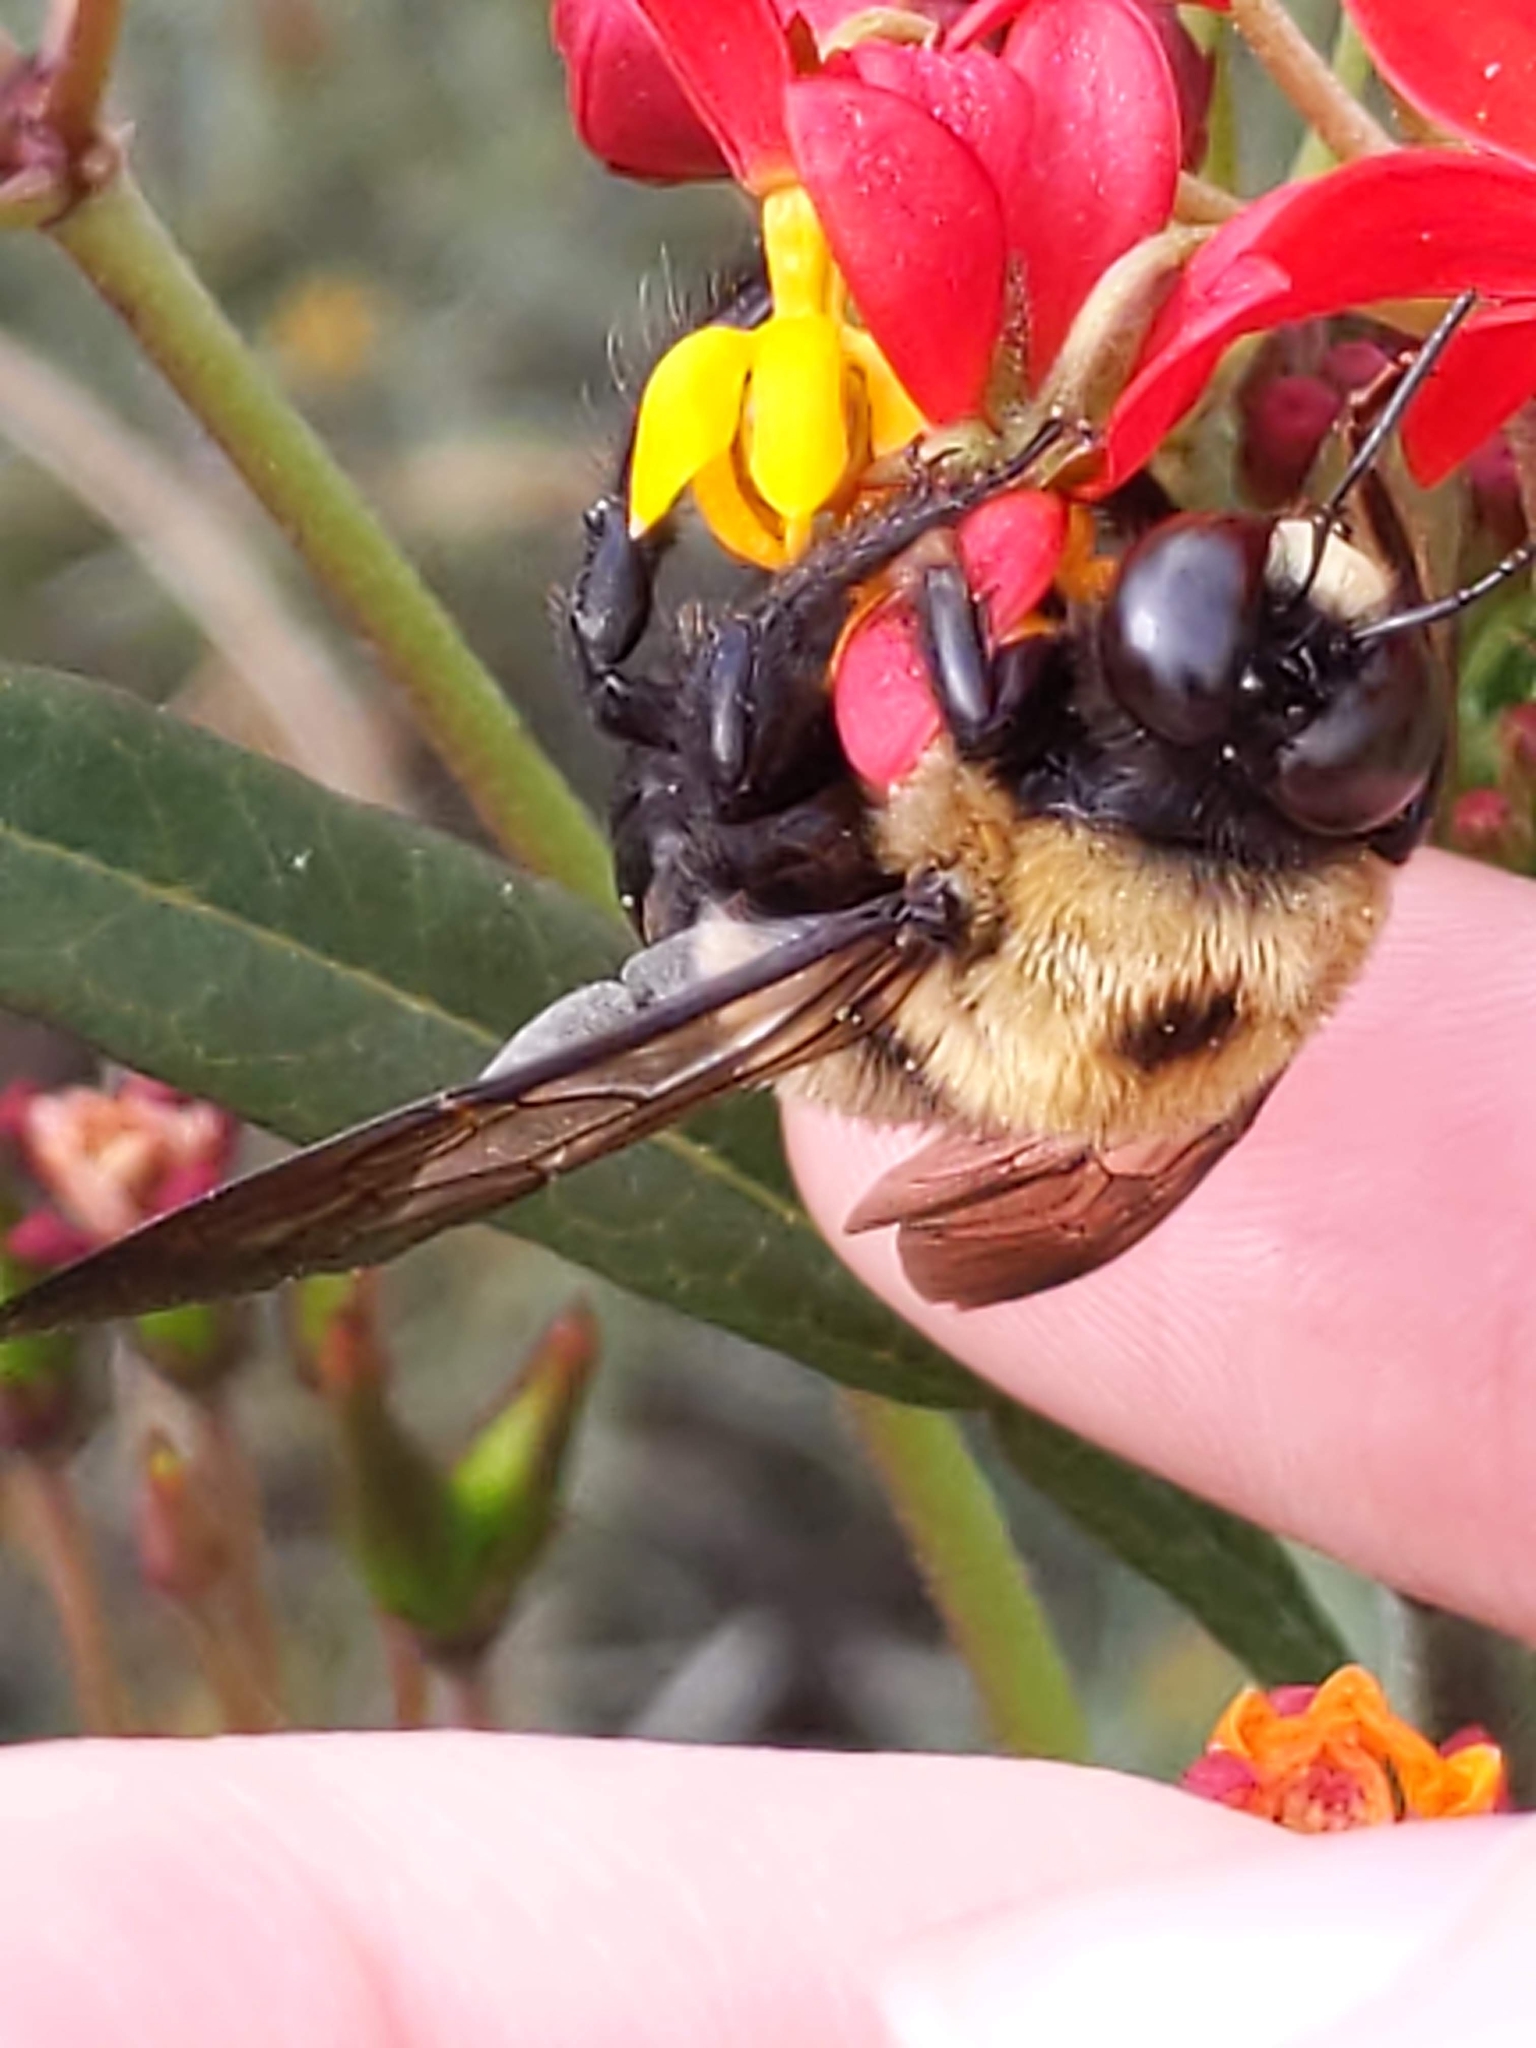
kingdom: Animalia
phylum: Arthropoda
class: Insecta
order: Hymenoptera
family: Apidae
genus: Xylocopa
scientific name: Xylocopa virginica
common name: Carpenter bee
